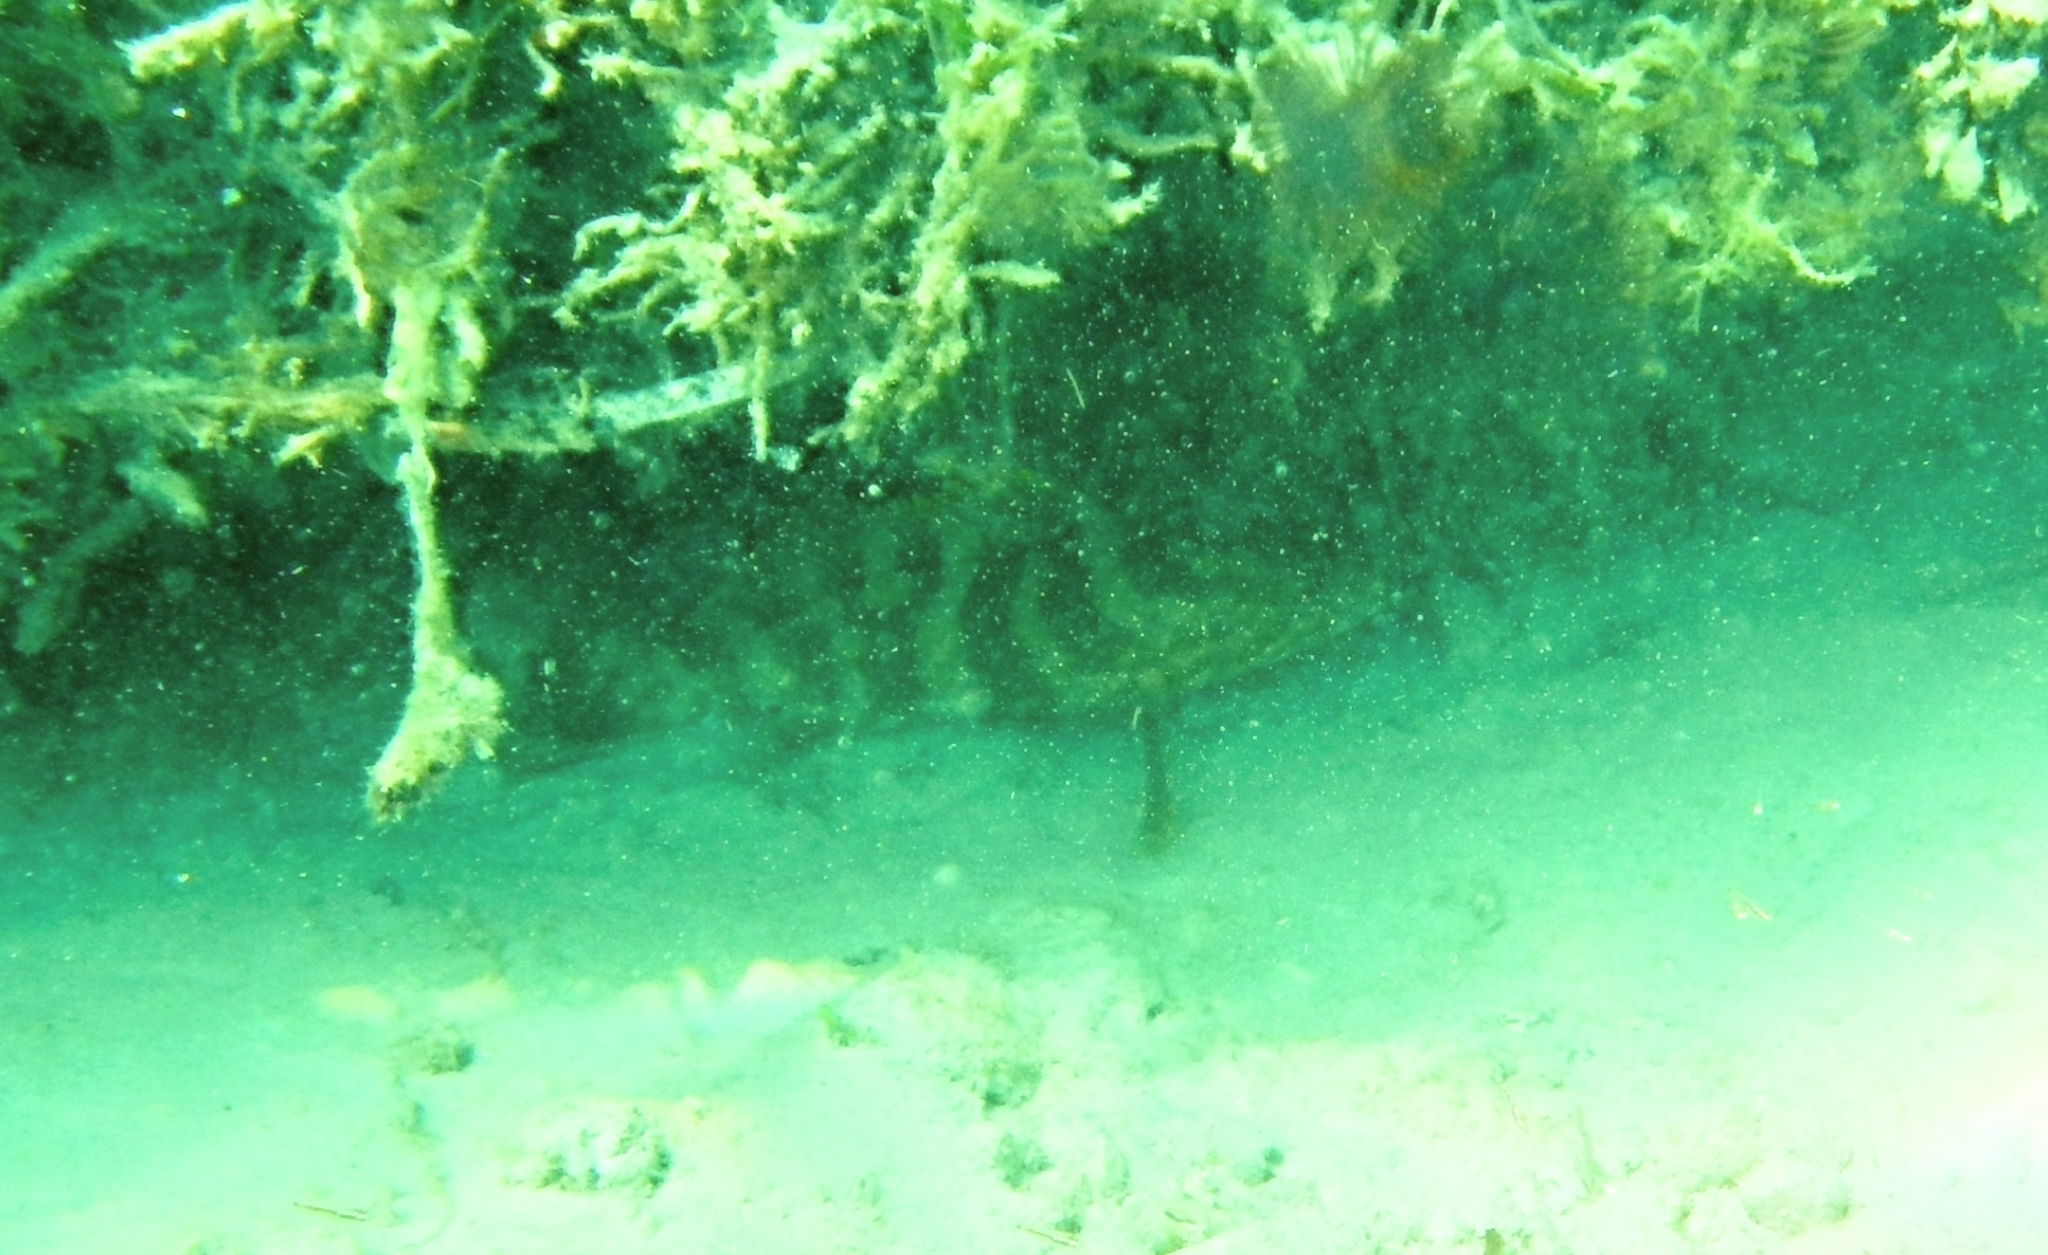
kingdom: Animalia
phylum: Chordata
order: Perciformes
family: Serranidae
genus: Epinephelus
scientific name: Epinephelus striatus
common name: Nassau grouper
